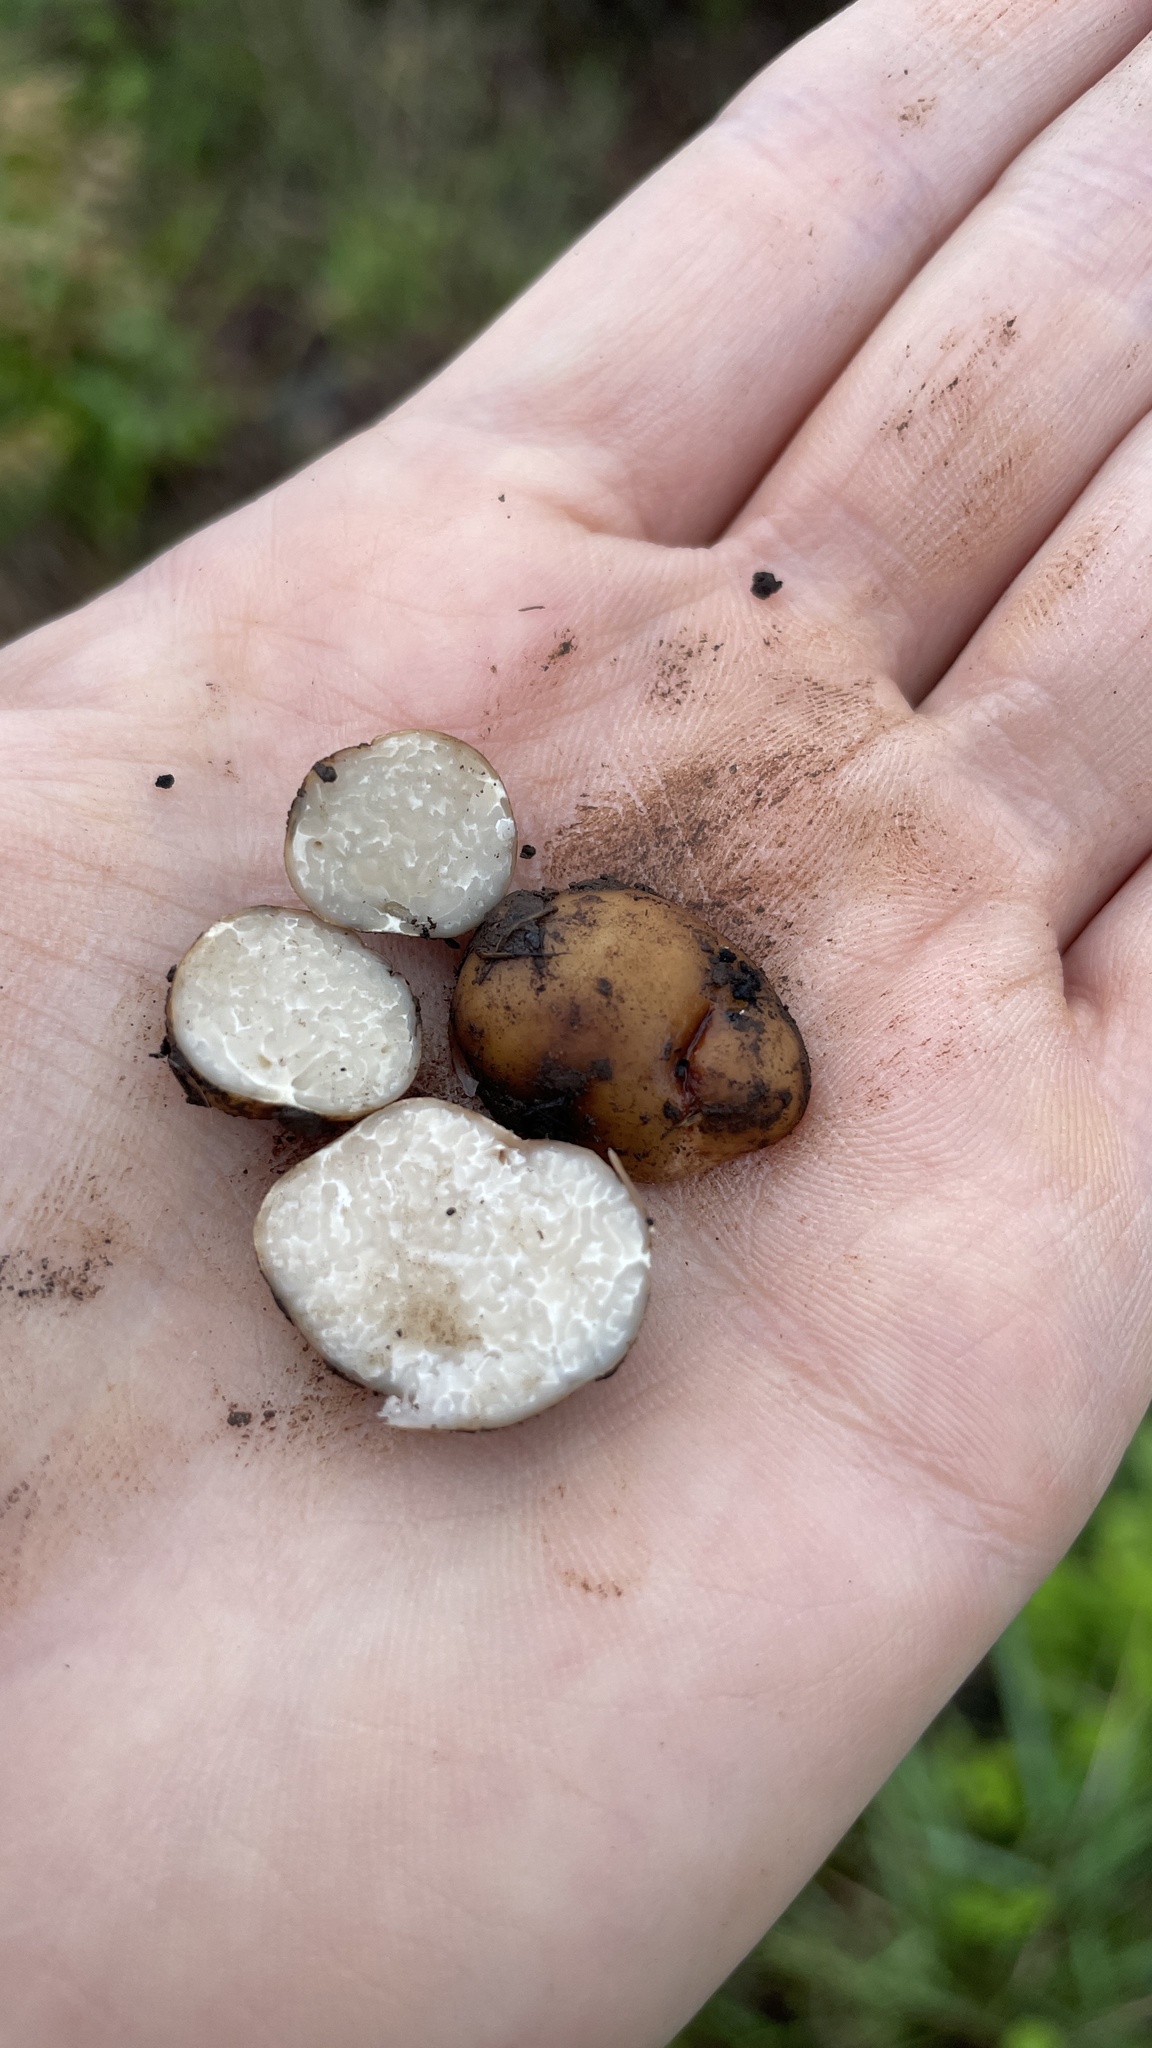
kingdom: Fungi
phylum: Ascomycota
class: Pezizomycetes
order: Pezizales
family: Tuberaceae
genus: Tuber
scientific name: Tuber candidum
